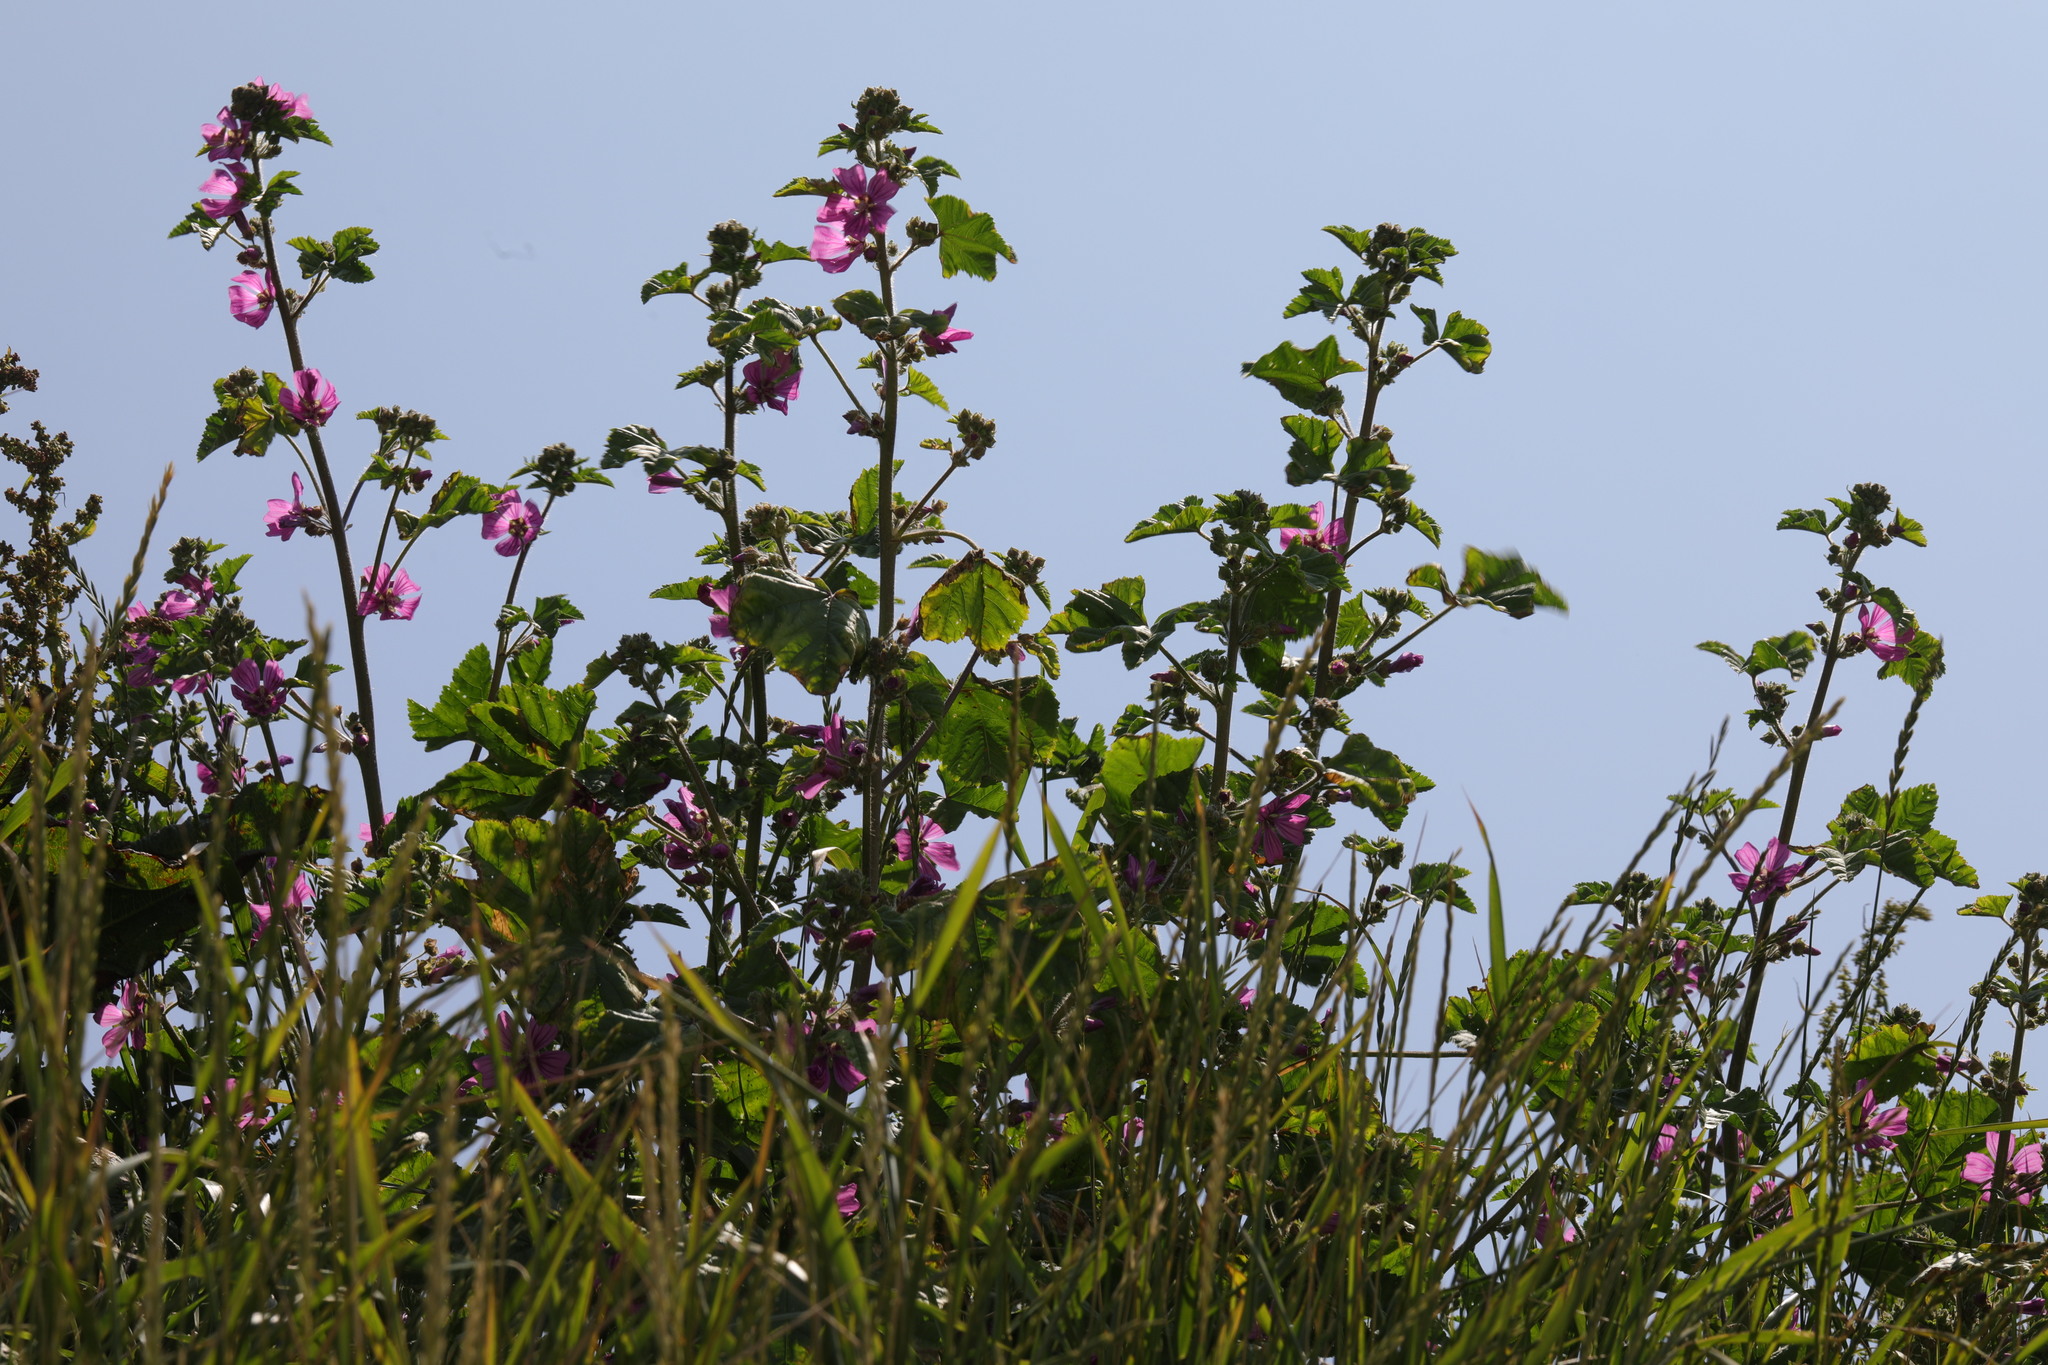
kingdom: Plantae
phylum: Tracheophyta
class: Magnoliopsida
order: Malvales
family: Malvaceae
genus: Malva
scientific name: Malva sylvestris
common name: Common mallow
